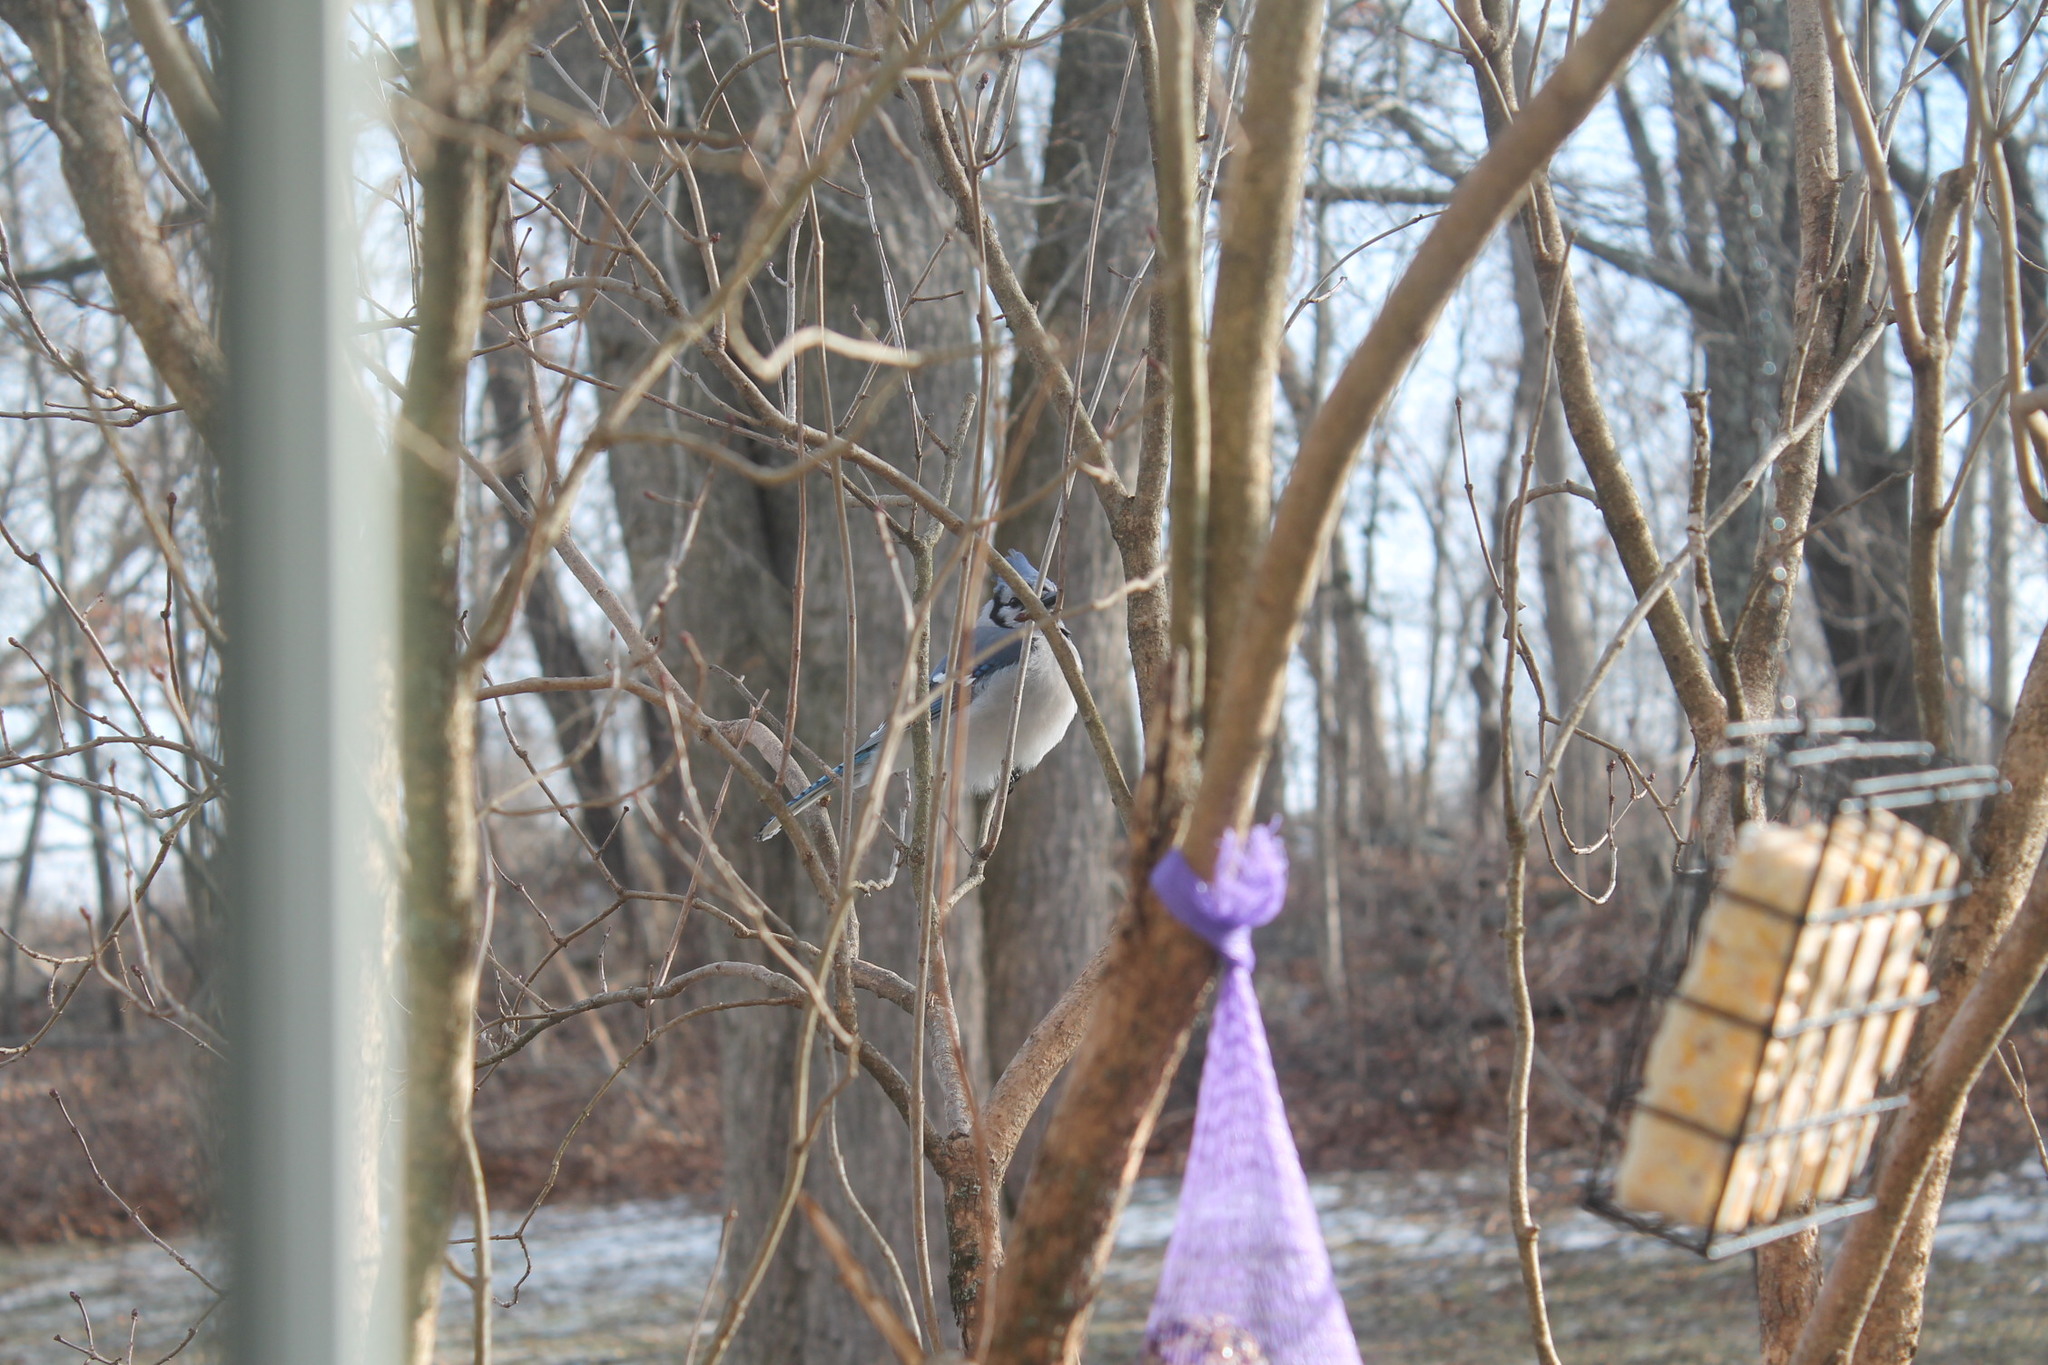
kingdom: Animalia
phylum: Chordata
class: Aves
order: Passeriformes
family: Corvidae
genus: Cyanocitta
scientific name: Cyanocitta cristata
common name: Blue jay
